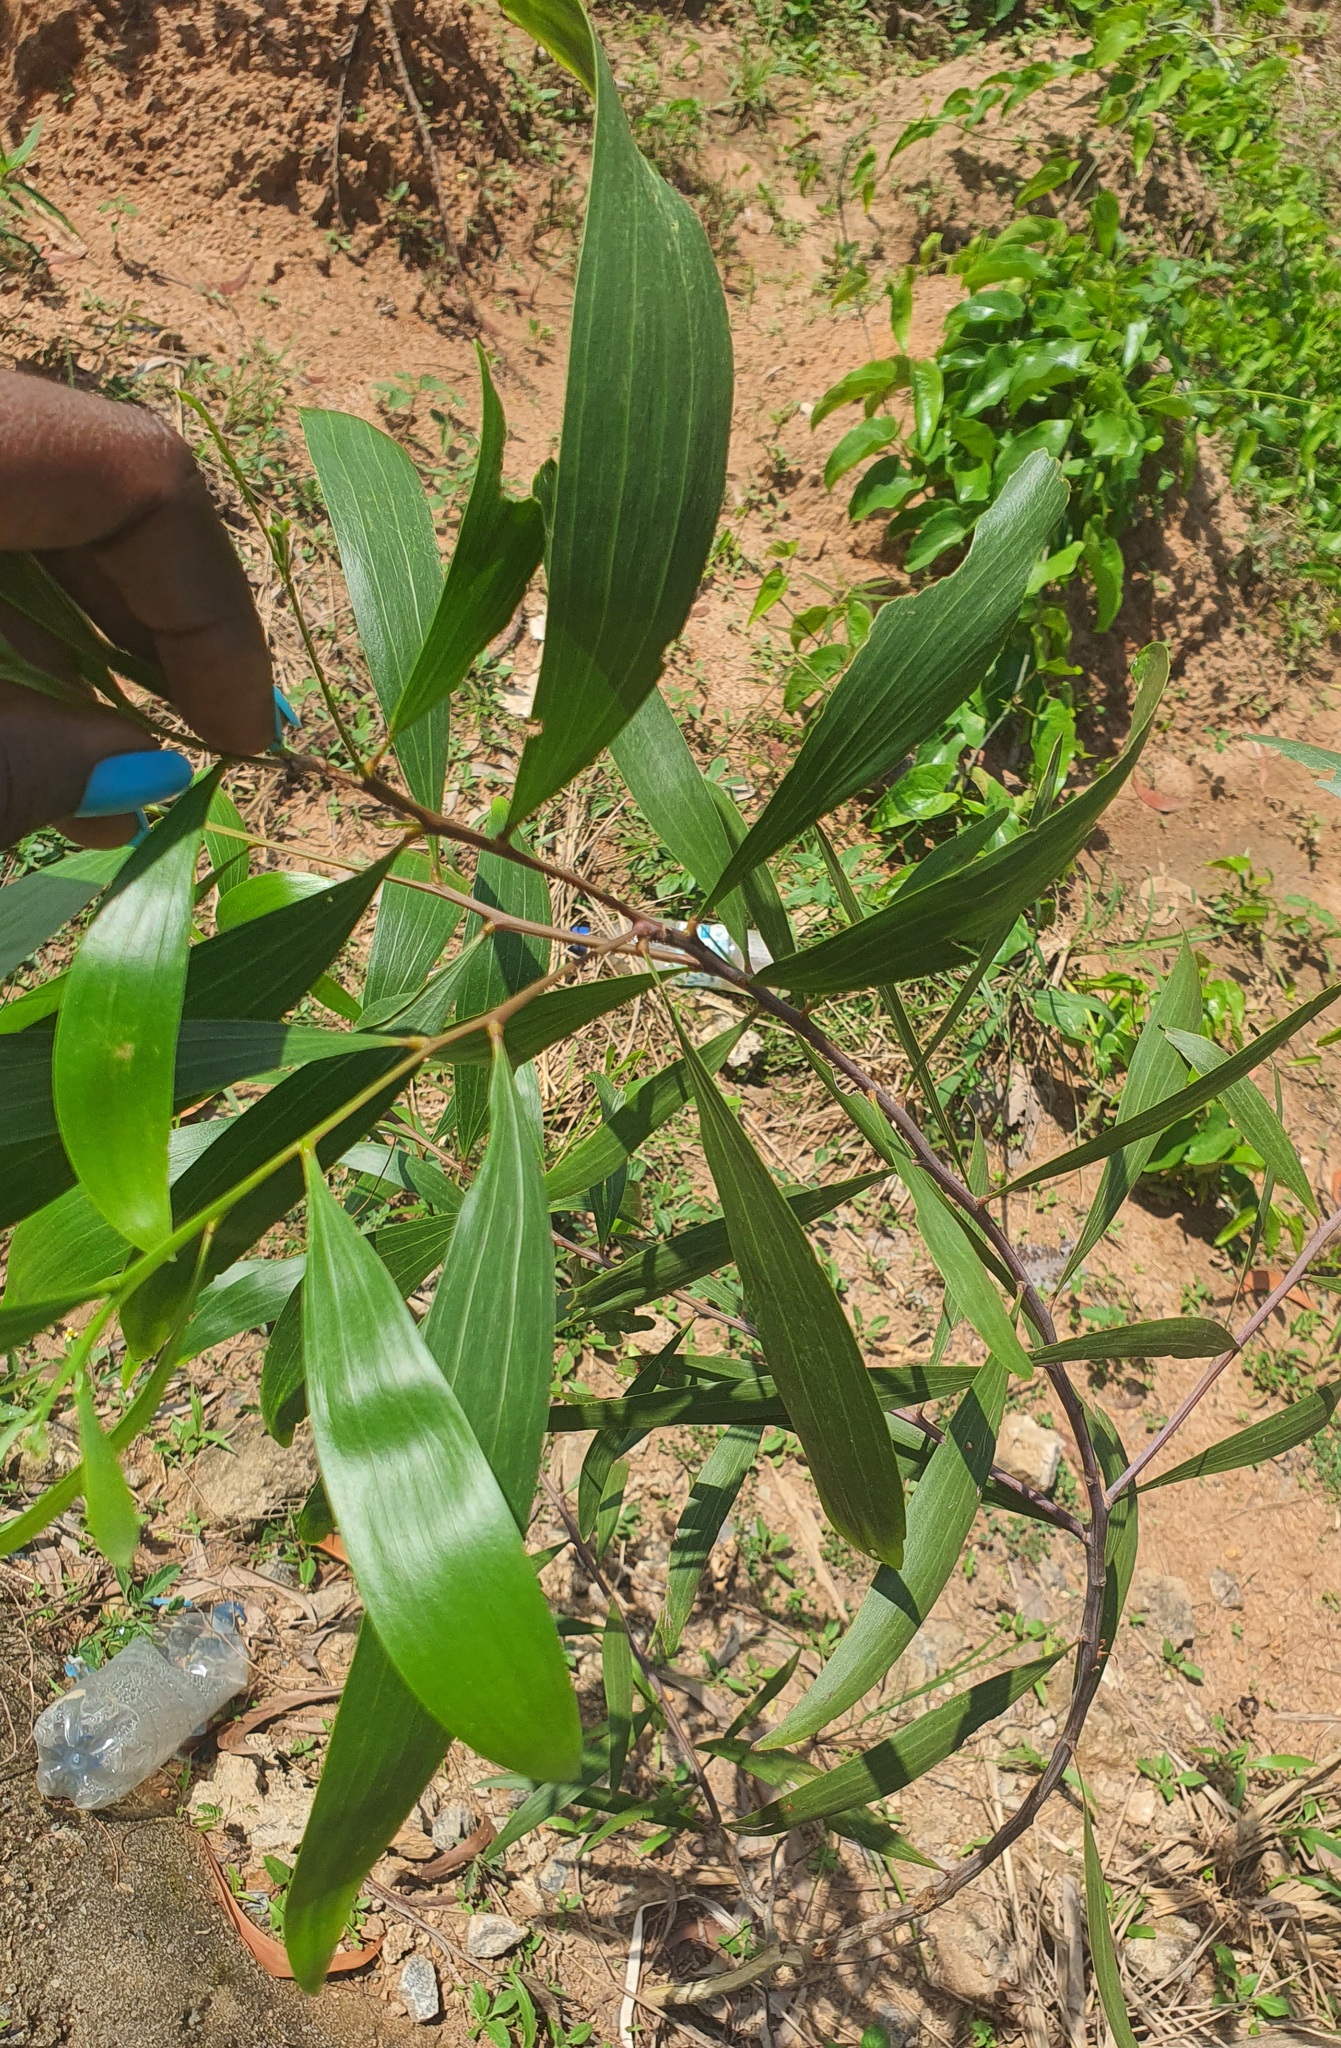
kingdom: Plantae
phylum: Tracheophyta
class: Magnoliopsida
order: Fabales
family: Fabaceae
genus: Acacia
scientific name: Acacia auriculiformis
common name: Earleaf acacia
